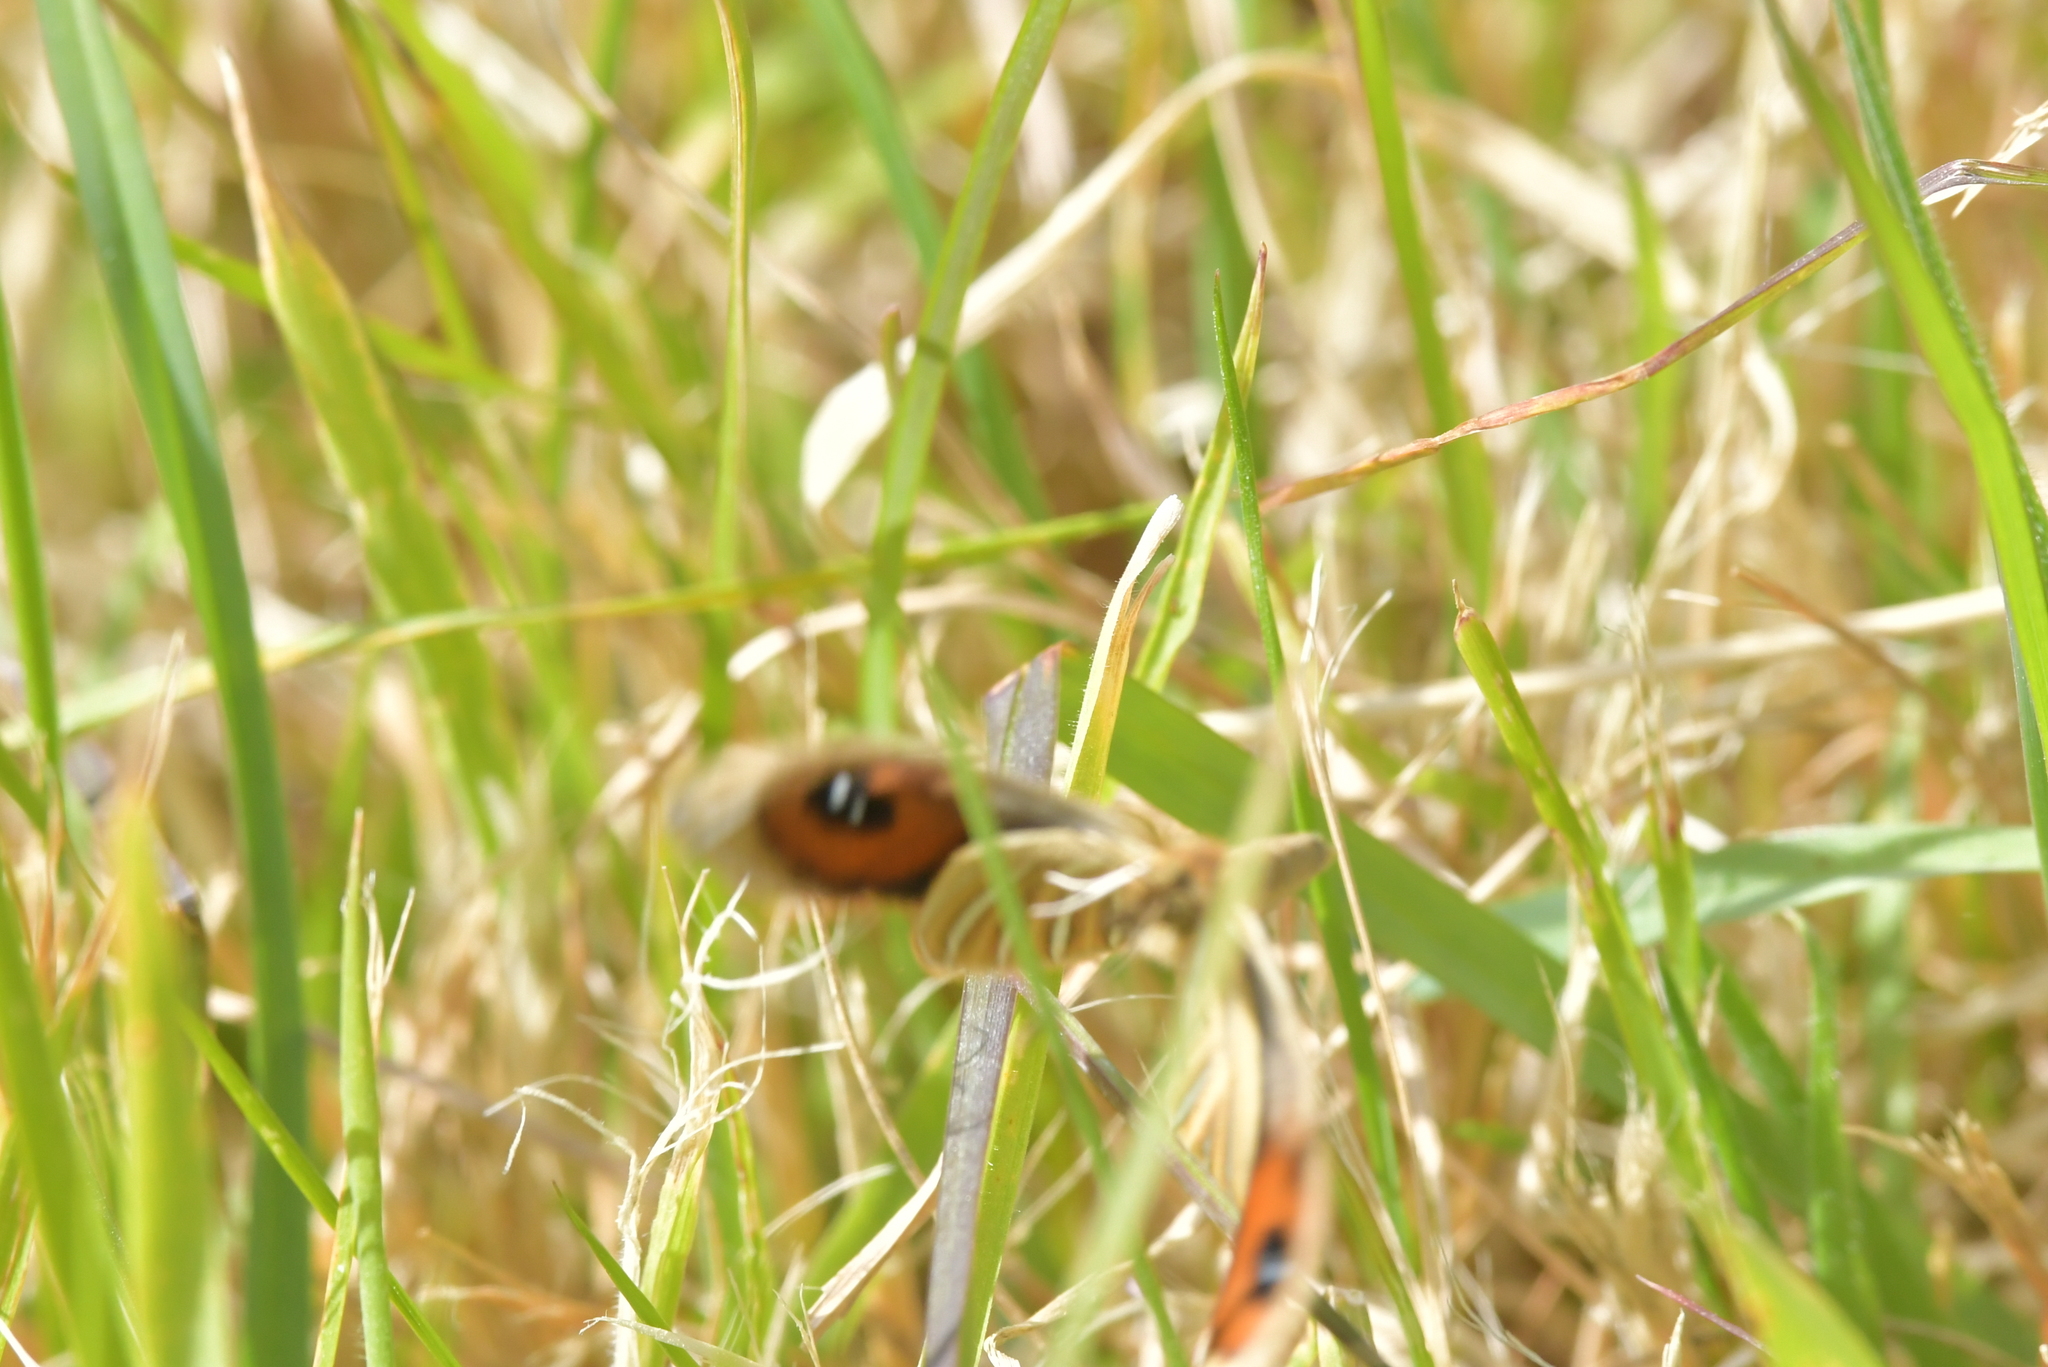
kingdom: Animalia
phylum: Arthropoda
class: Insecta
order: Lepidoptera
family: Nymphalidae
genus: Argyrophenga
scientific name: Argyrophenga antipodum
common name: Common tussock butterfly
